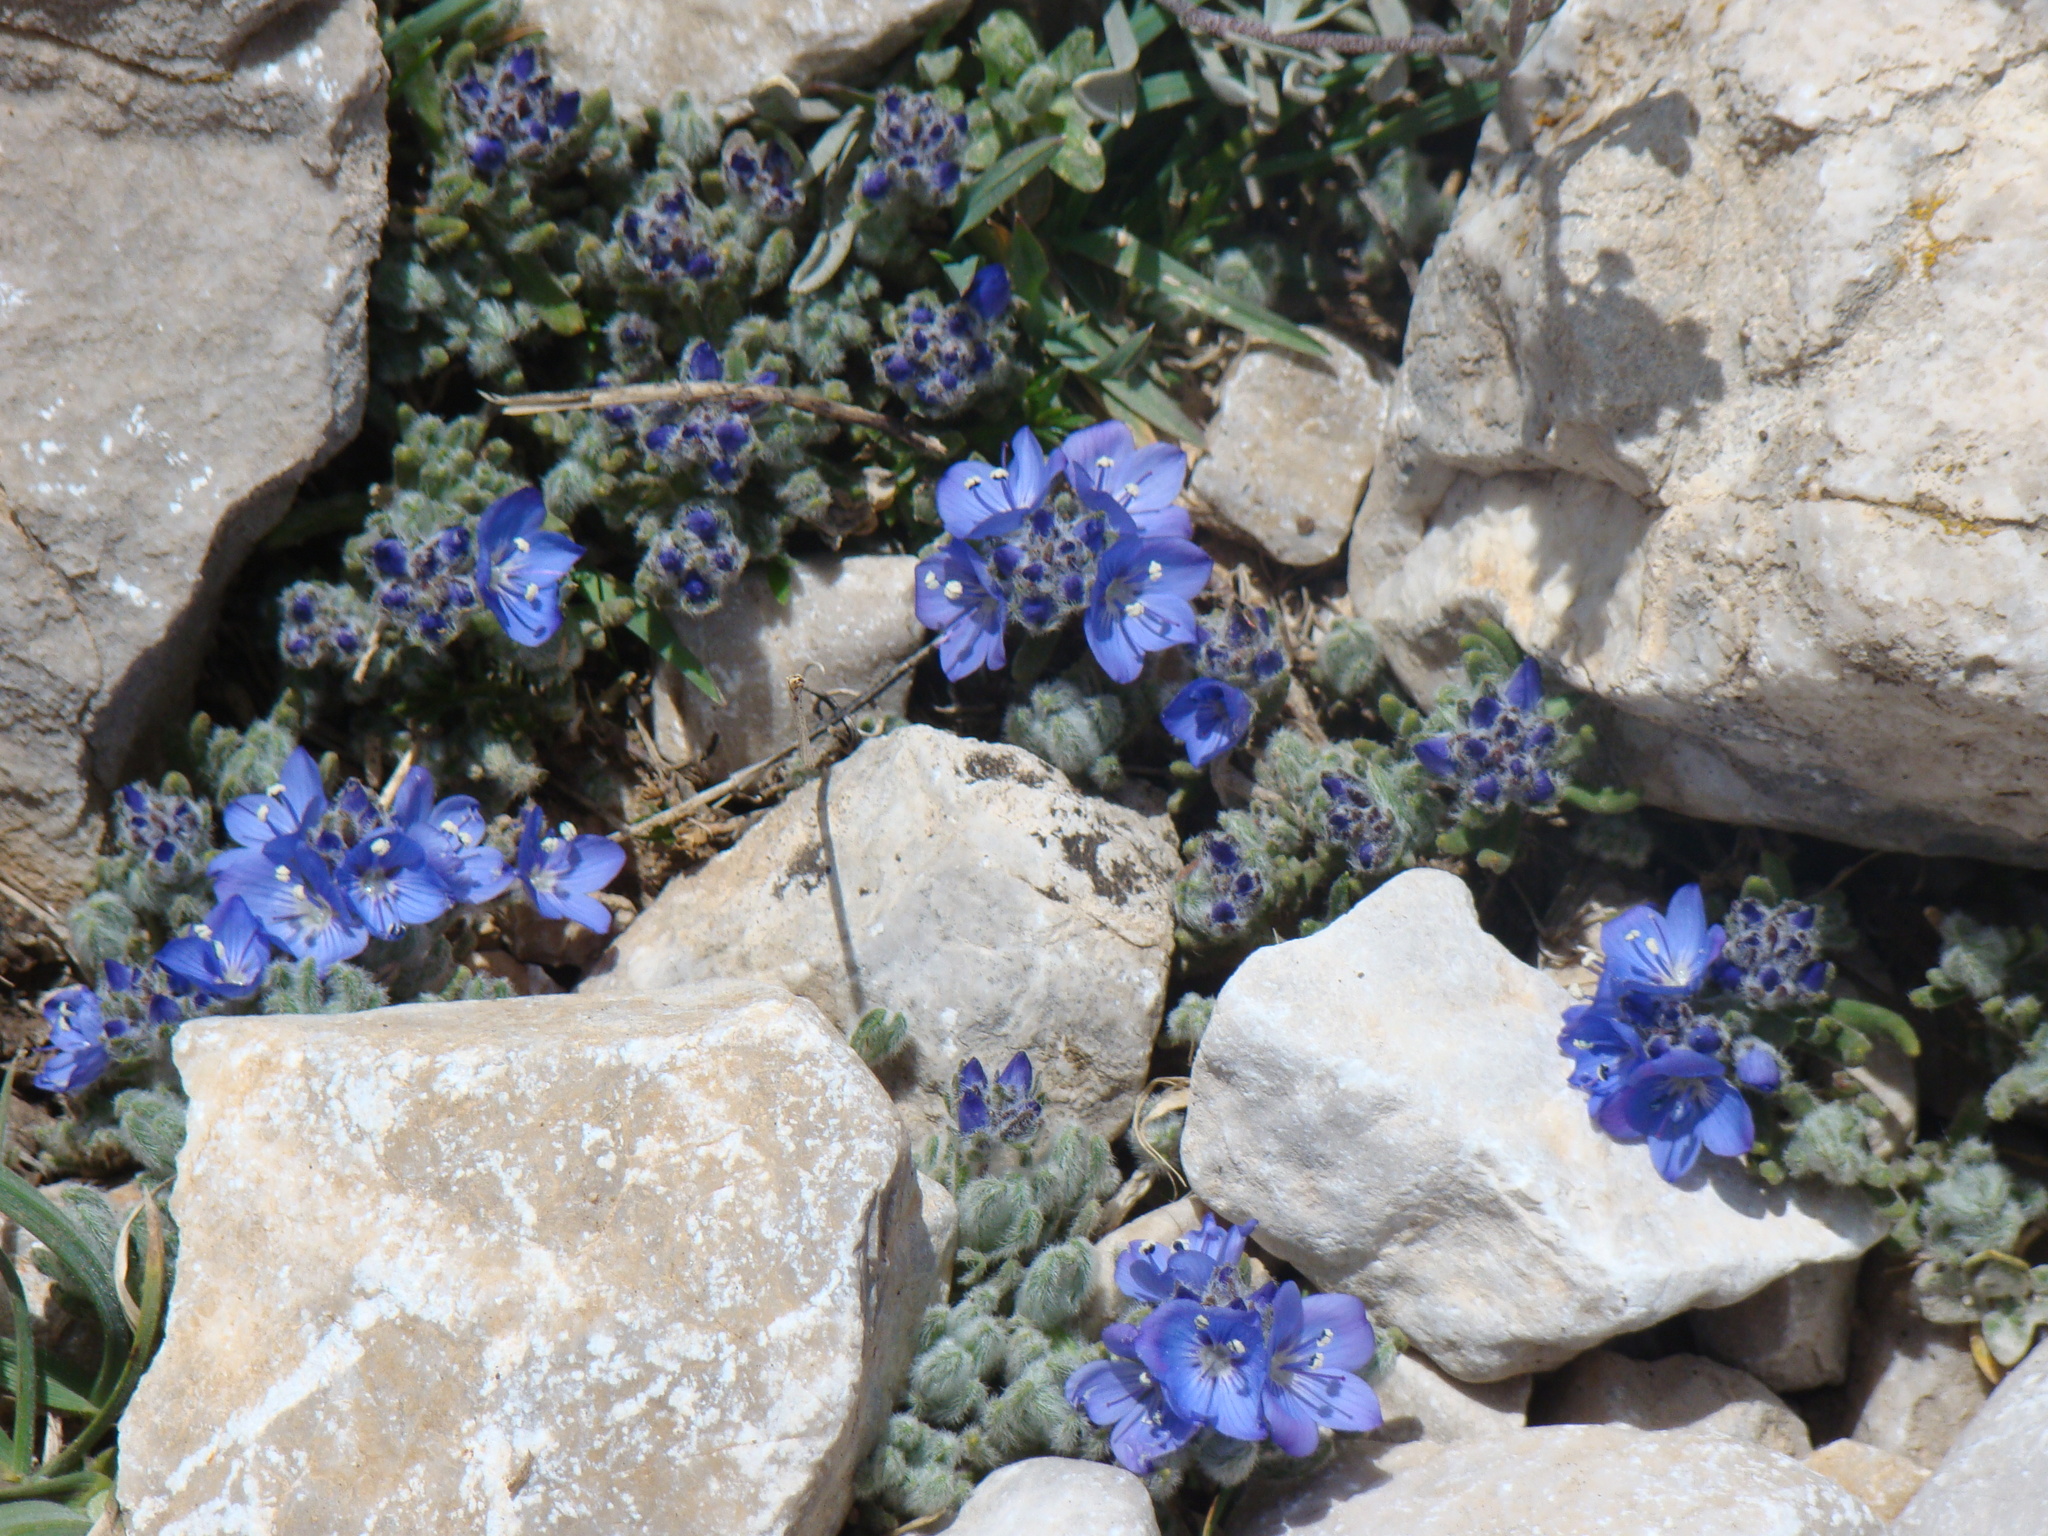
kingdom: Plantae
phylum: Tracheophyta
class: Magnoliopsida
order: Lamiales
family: Plantaginaceae
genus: Veronica
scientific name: Veronica bolkardaghensis
